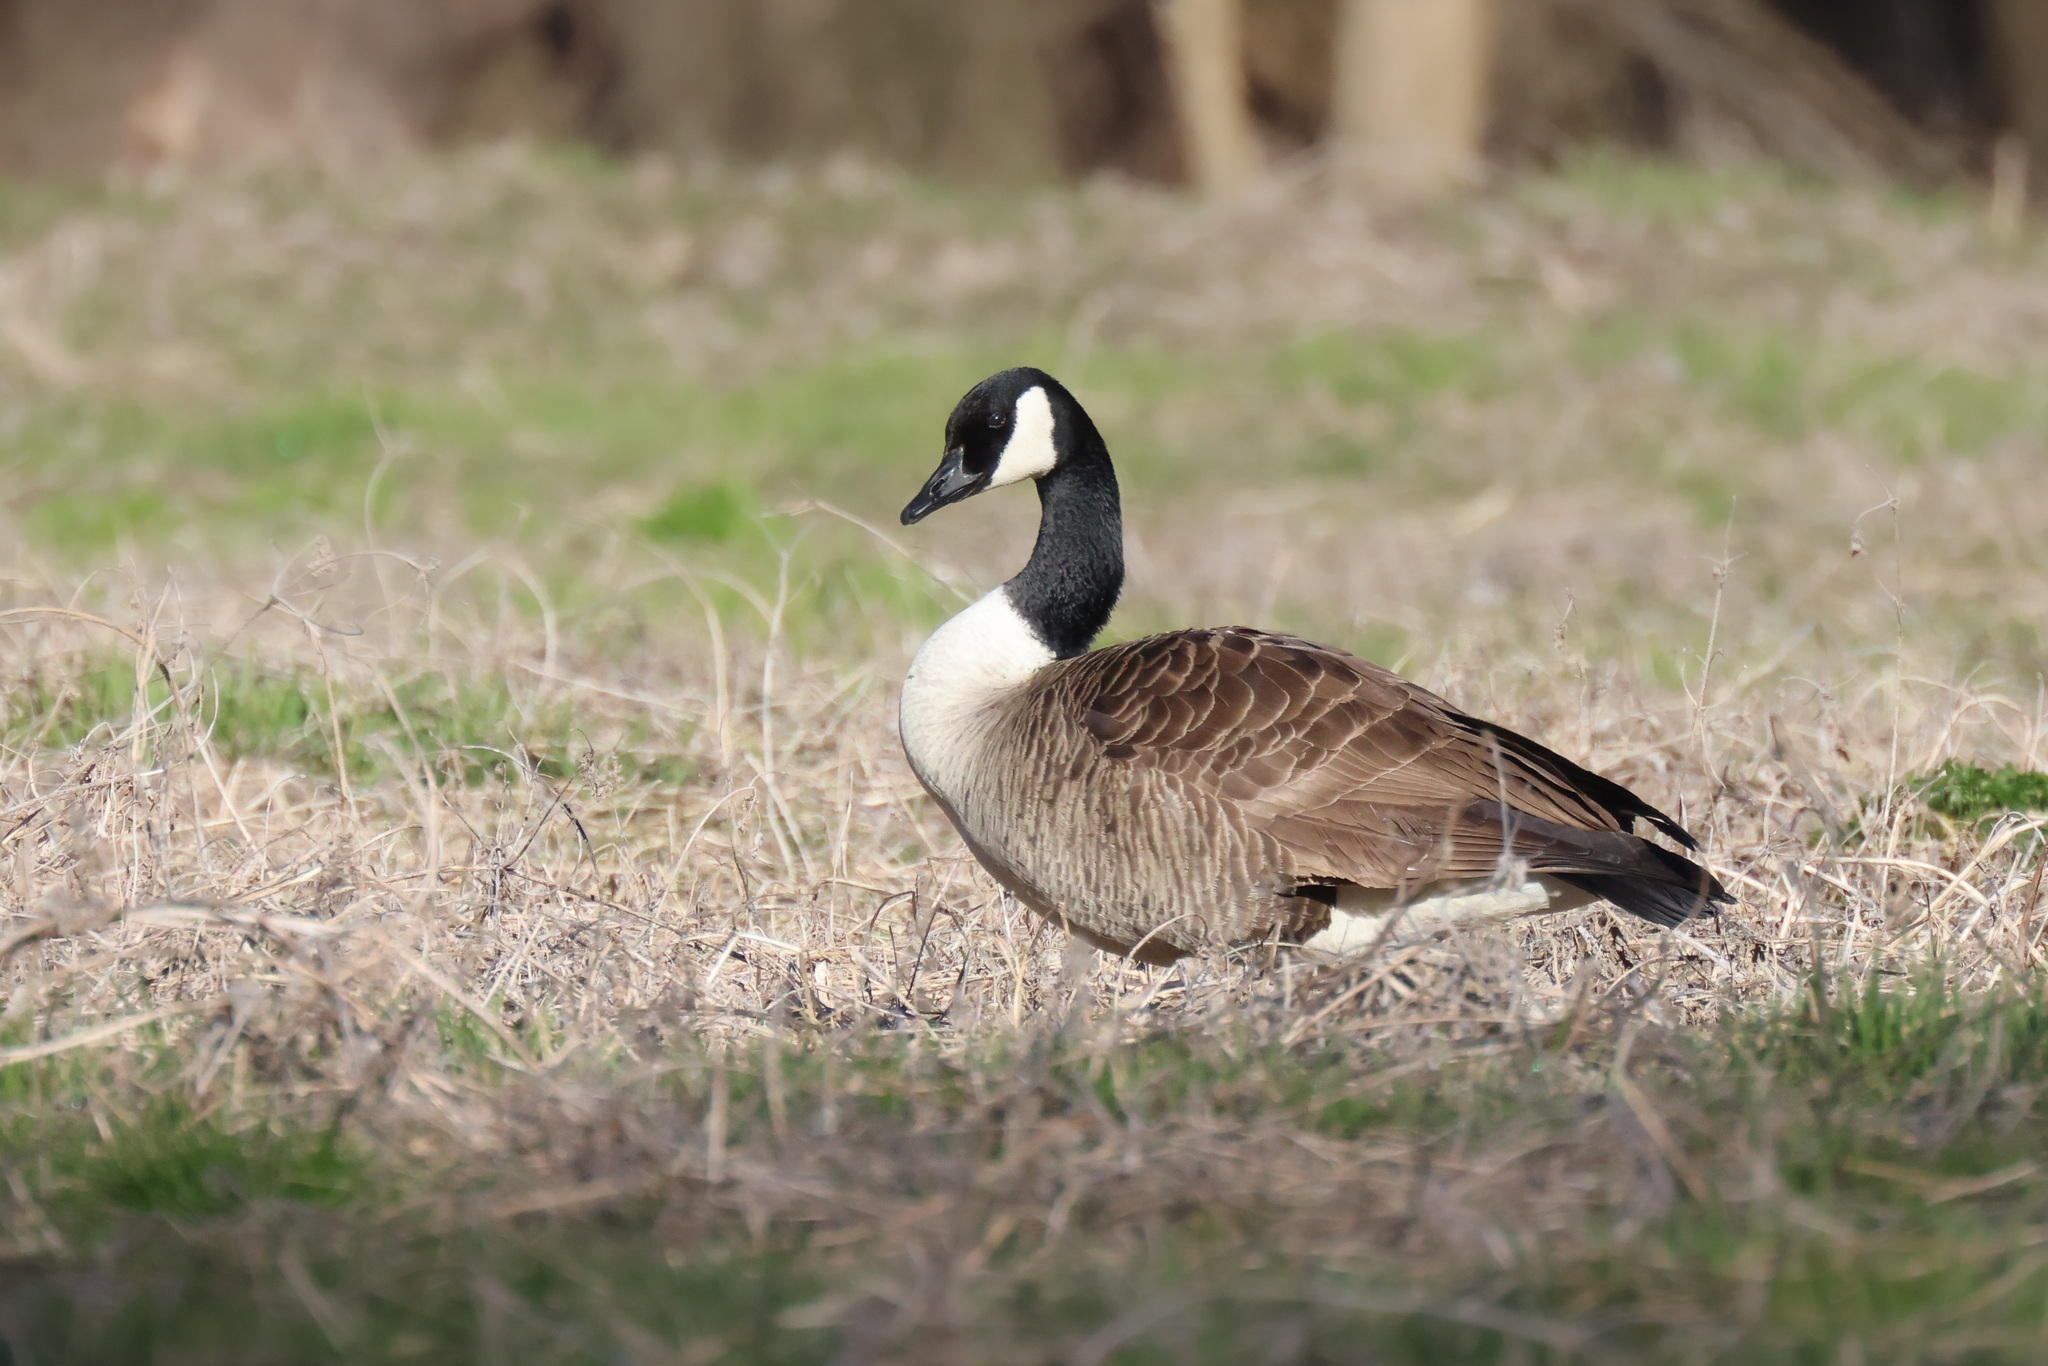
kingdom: Animalia
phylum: Chordata
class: Aves
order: Anseriformes
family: Anatidae
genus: Branta
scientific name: Branta canadensis
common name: Canada goose
